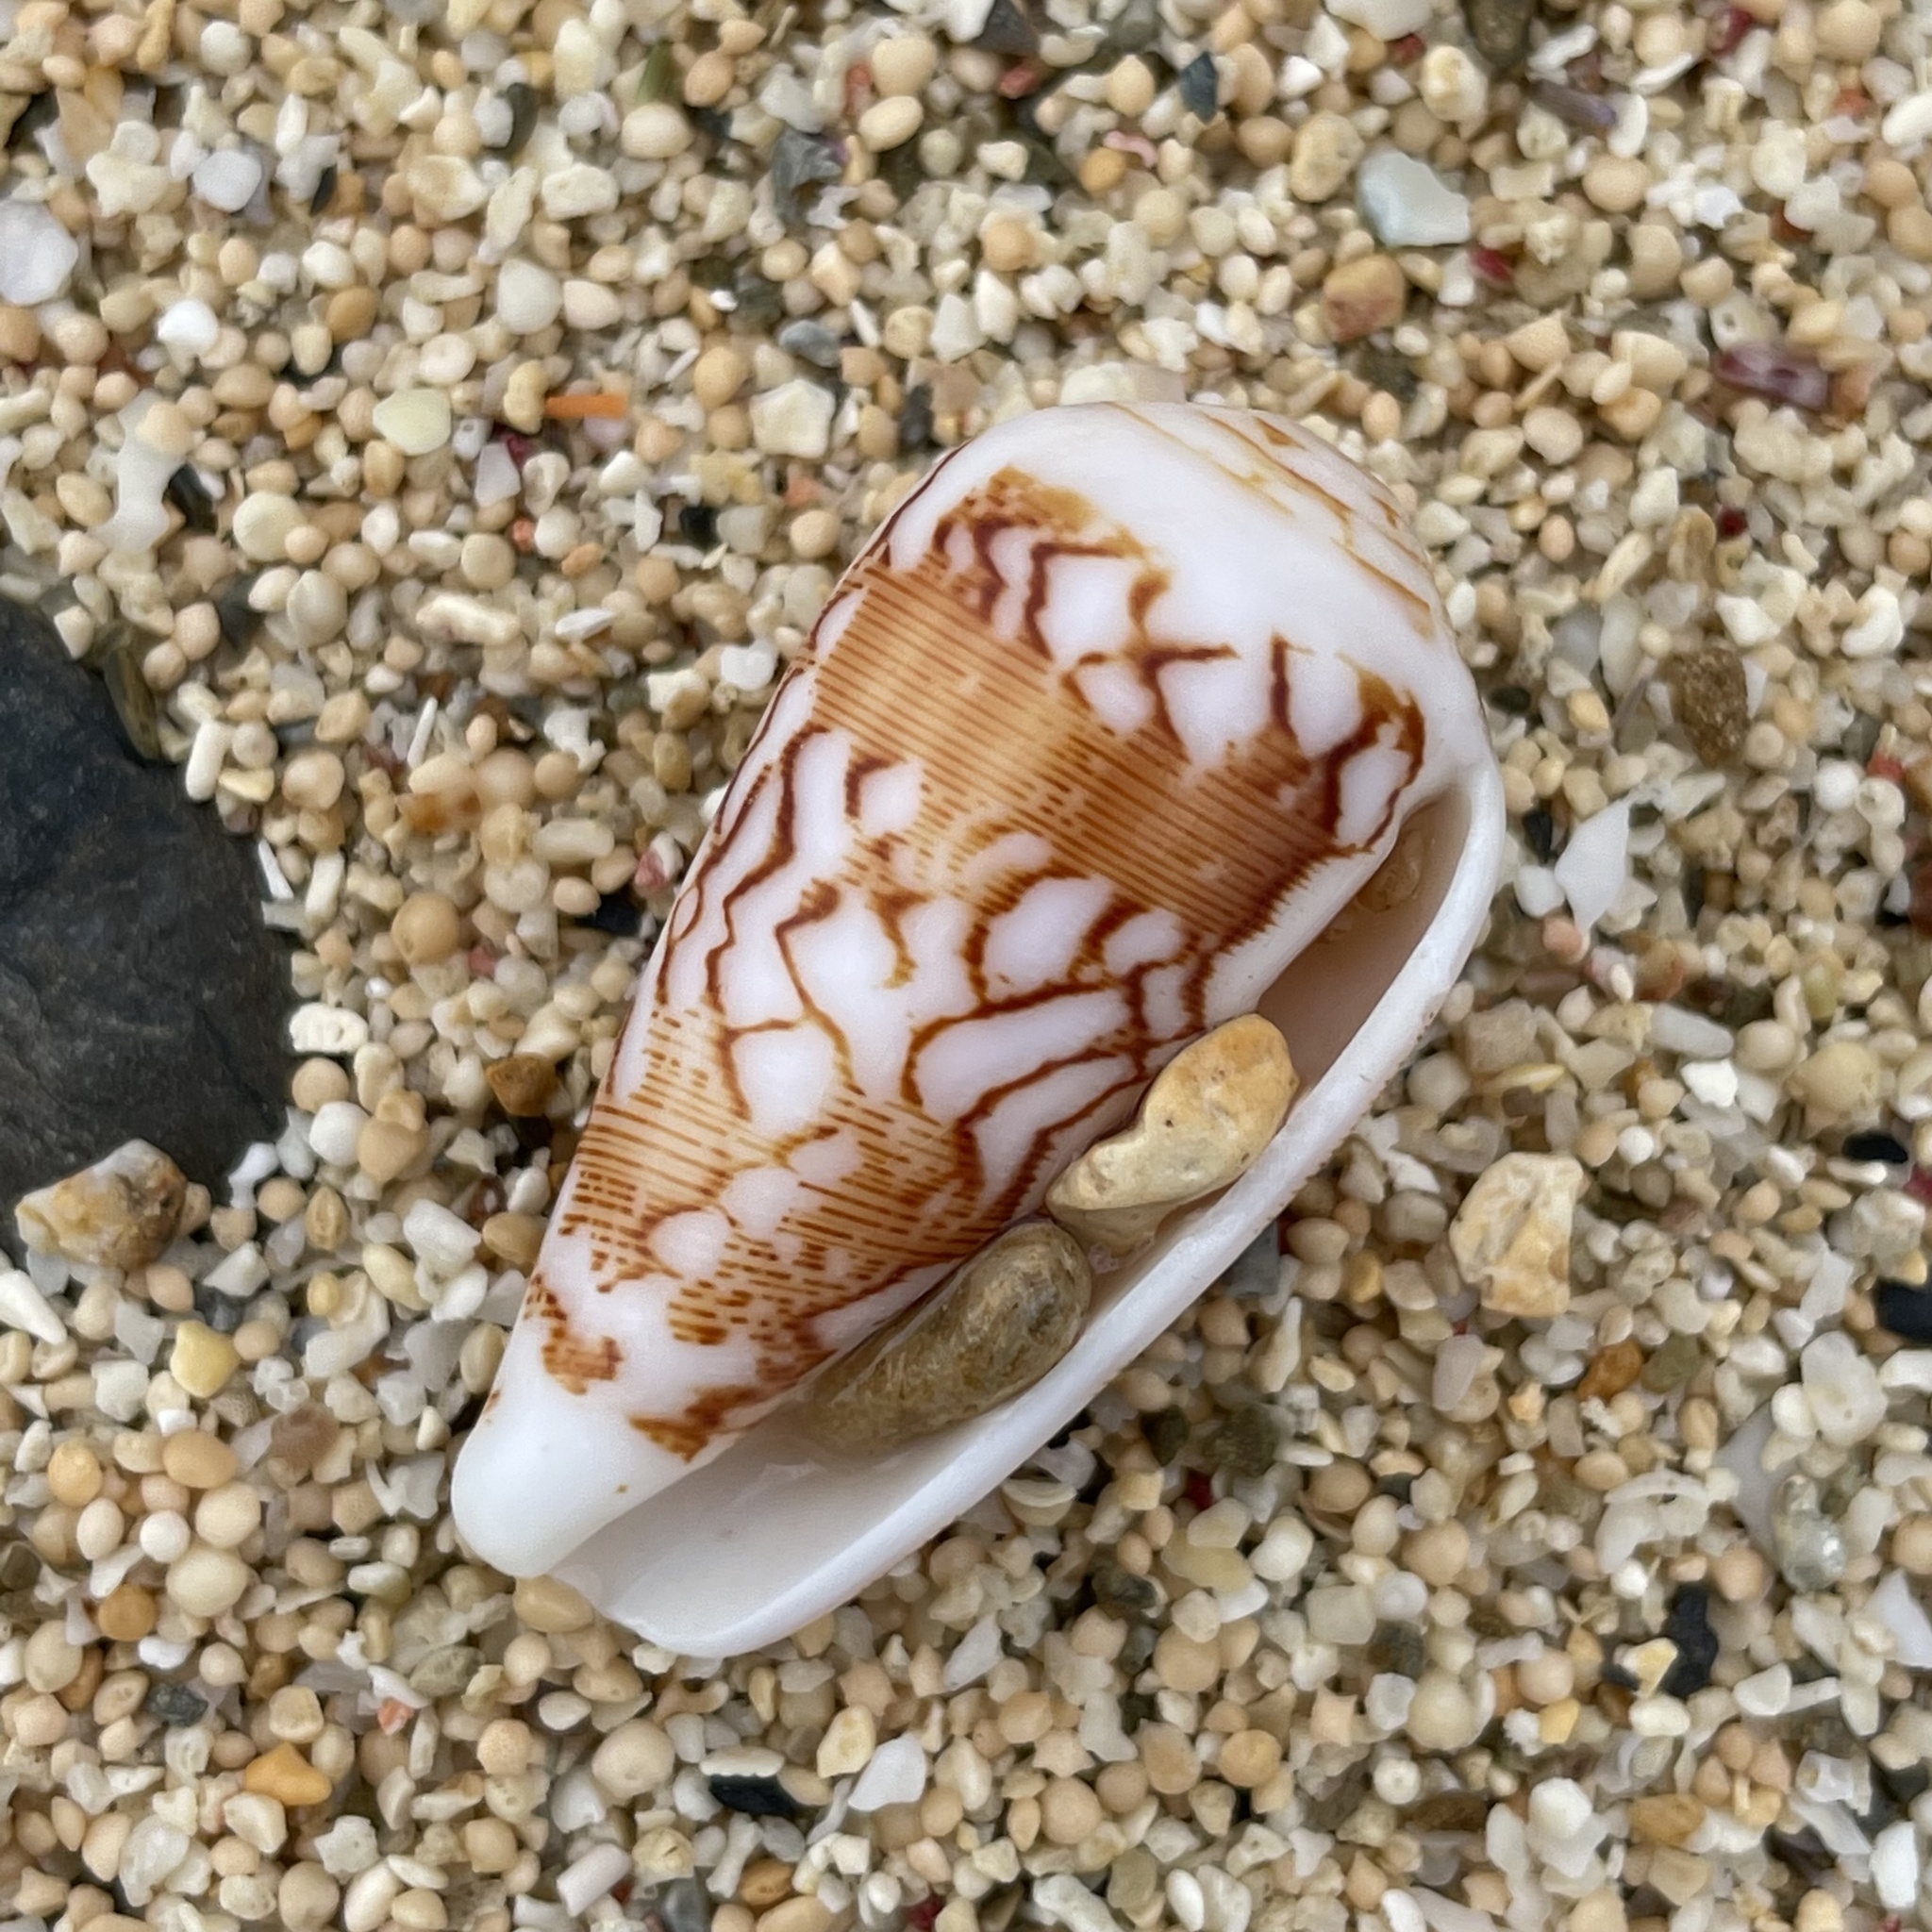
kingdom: Animalia
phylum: Mollusca
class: Gastropoda
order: Neogastropoda
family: Conidae
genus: Conus
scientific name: Conus striatus
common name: Striated cone
